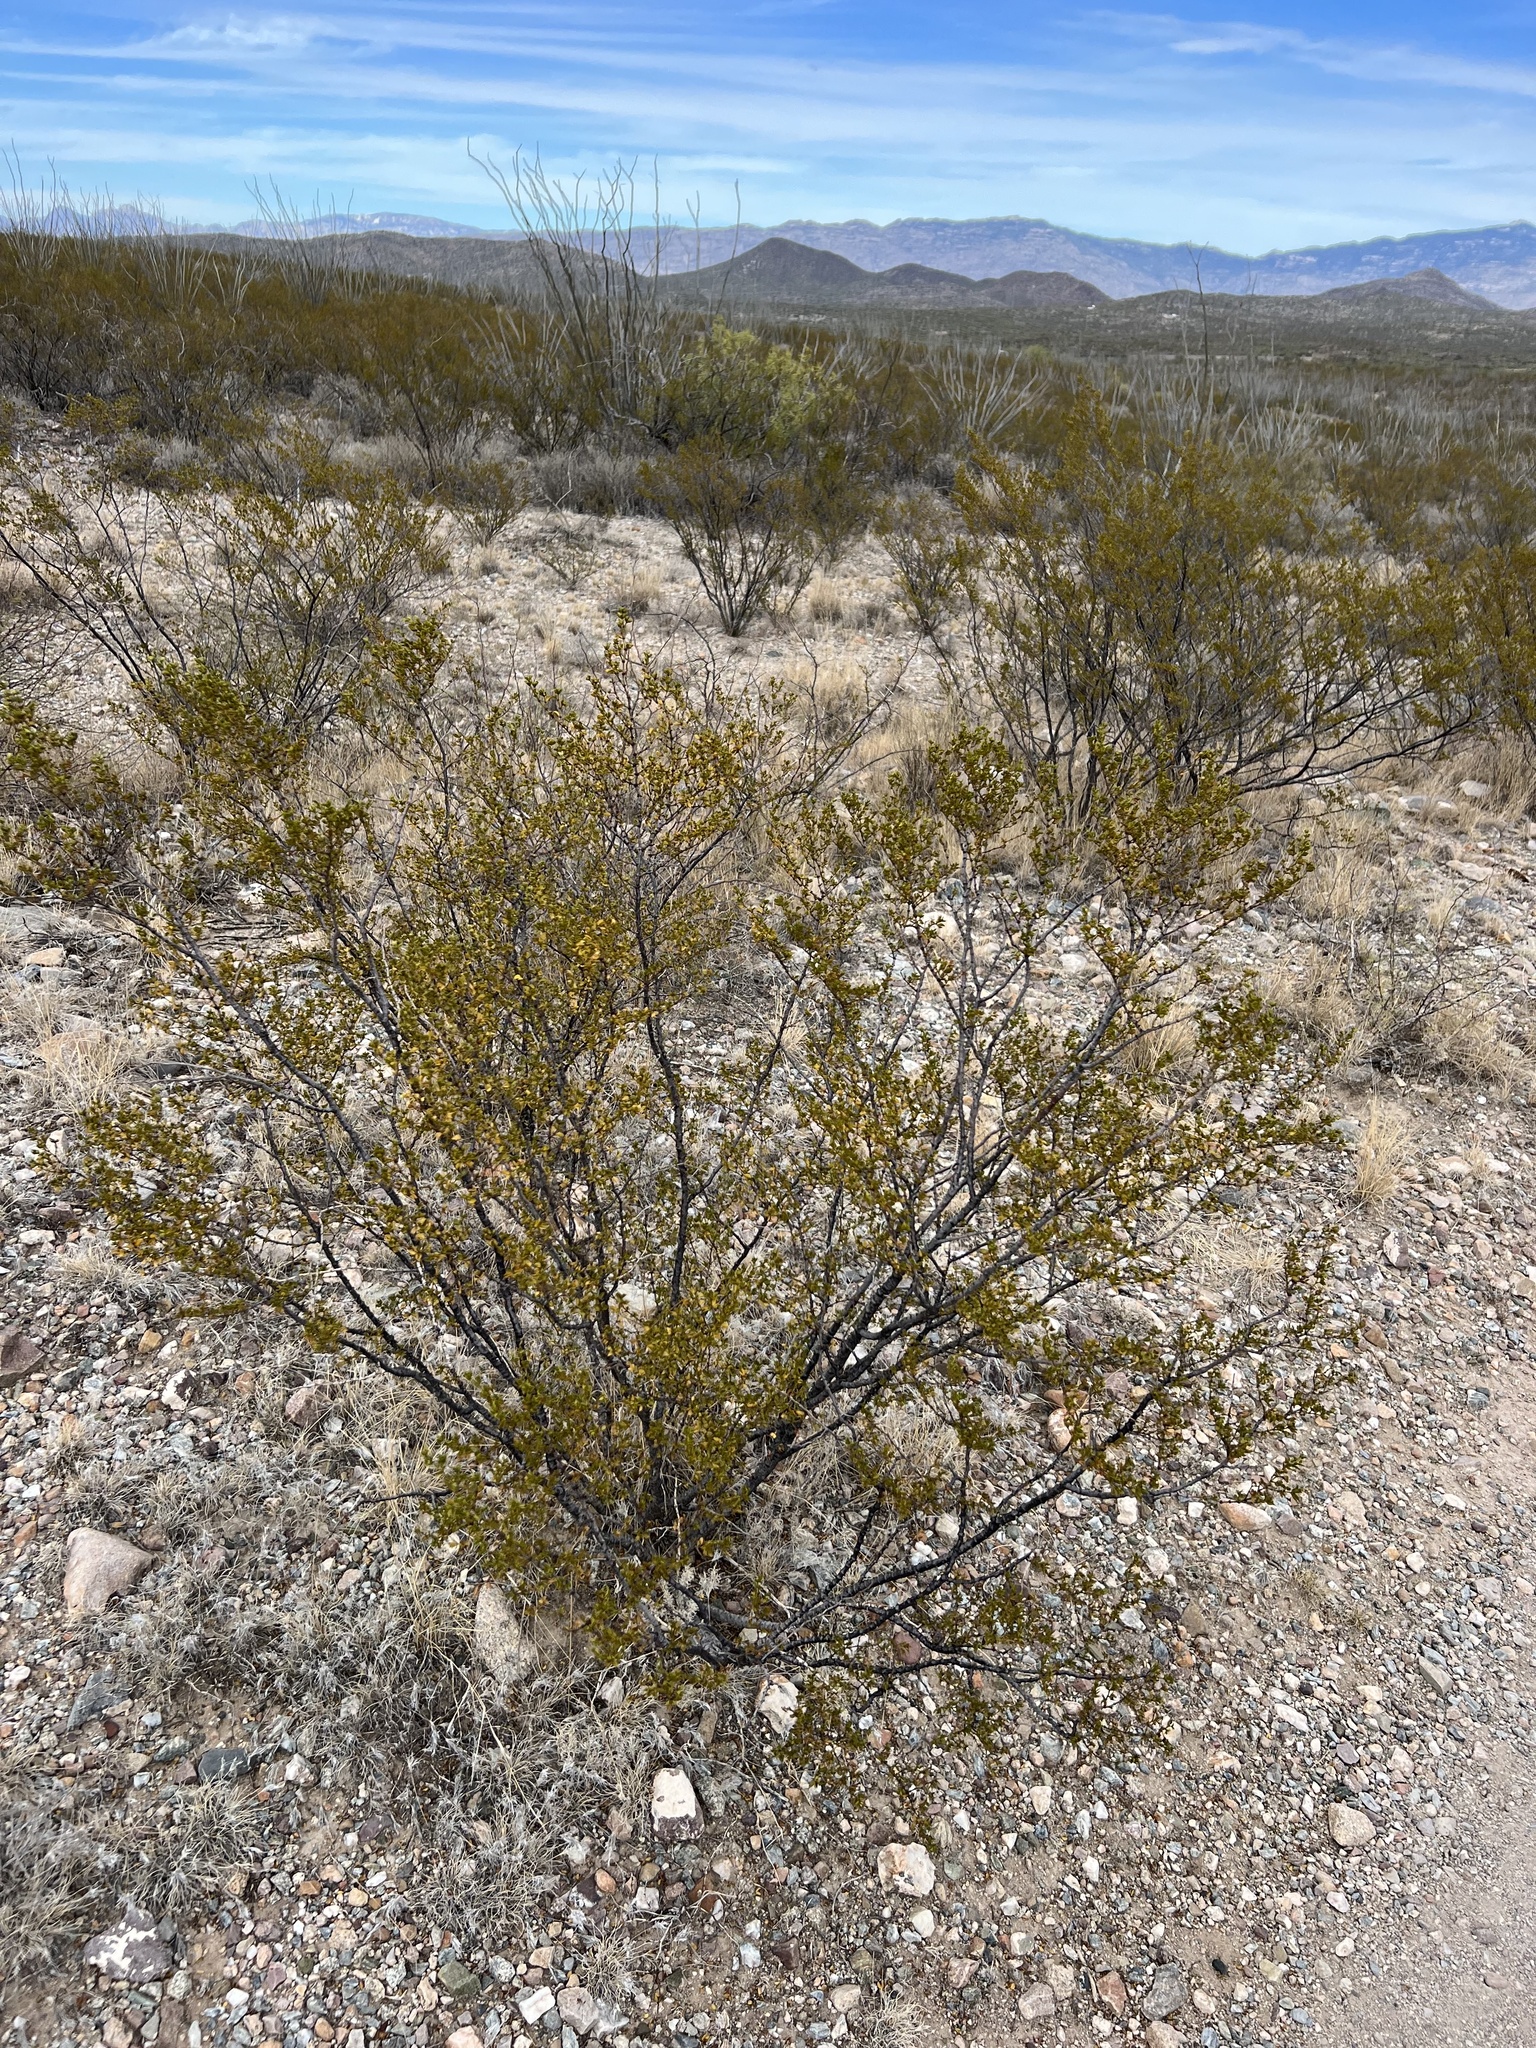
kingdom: Plantae
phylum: Tracheophyta
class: Magnoliopsida
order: Zygophyllales
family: Zygophyllaceae
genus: Larrea
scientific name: Larrea tridentata
